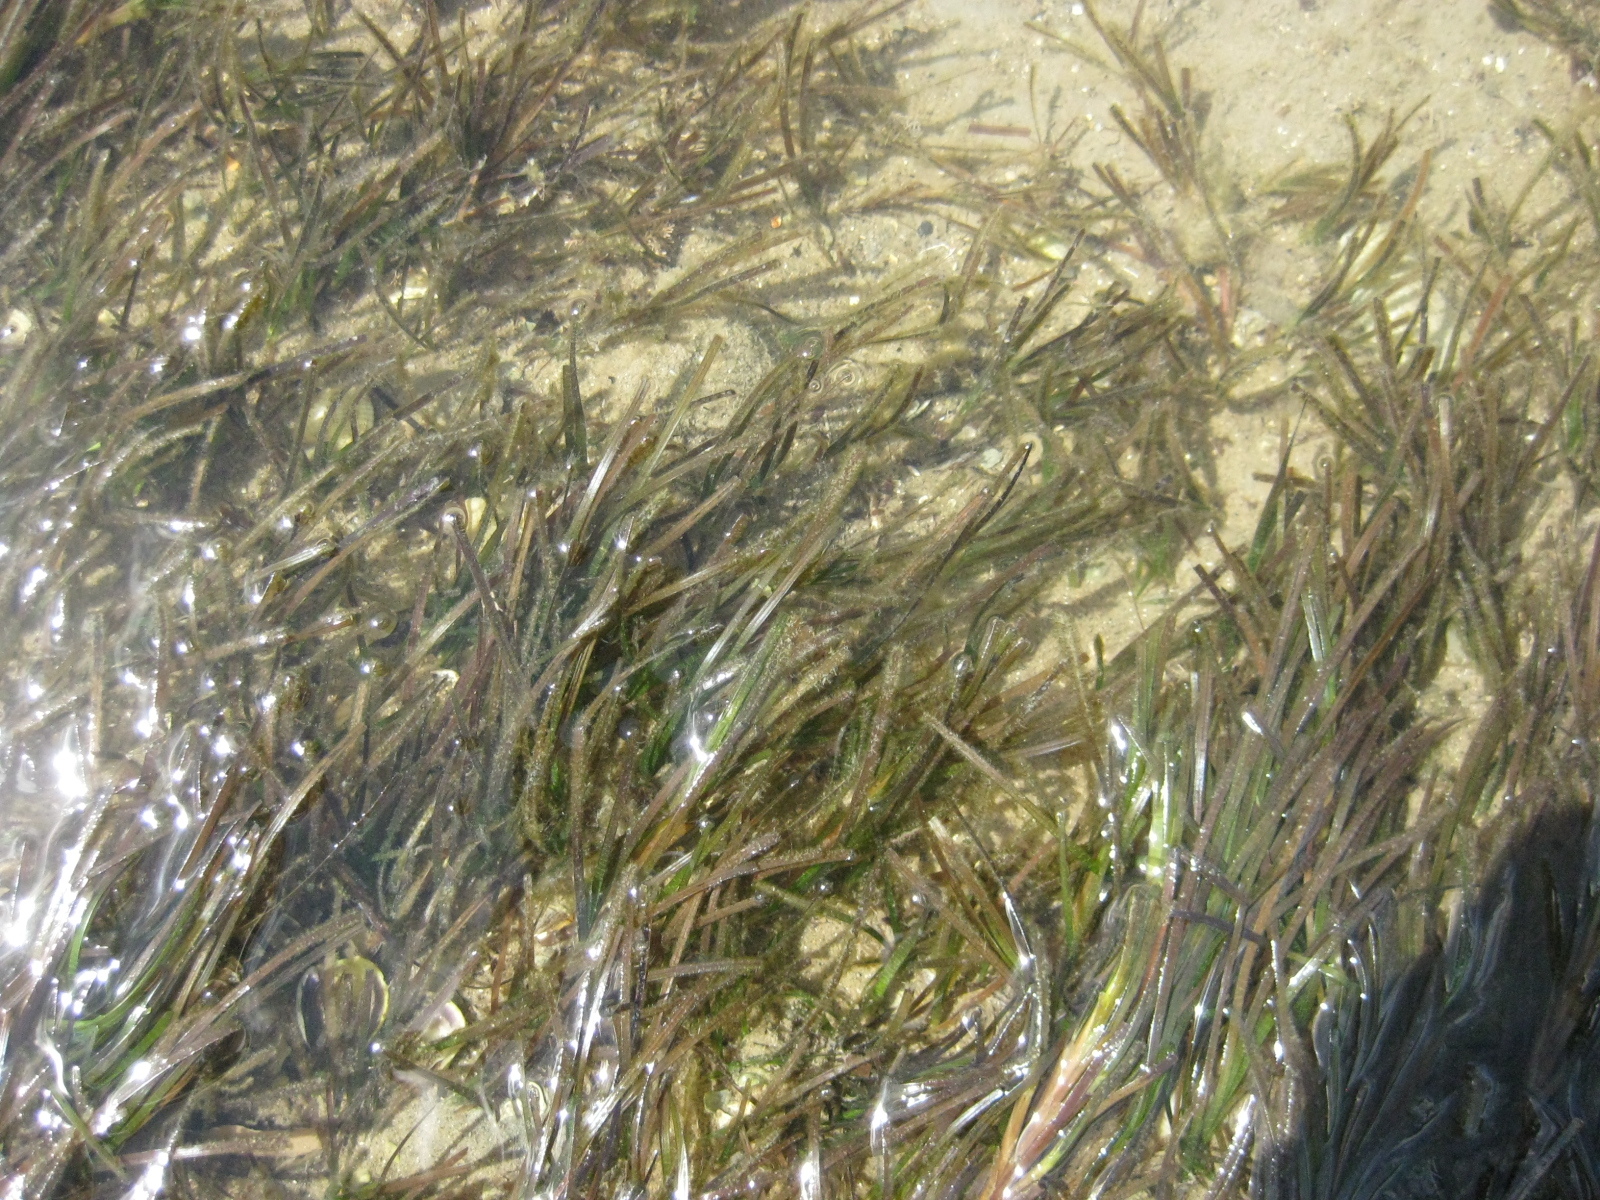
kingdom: Plantae
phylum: Tracheophyta
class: Liliopsida
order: Alismatales
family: Zosteraceae
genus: Zostera
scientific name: Zostera novazelandica
